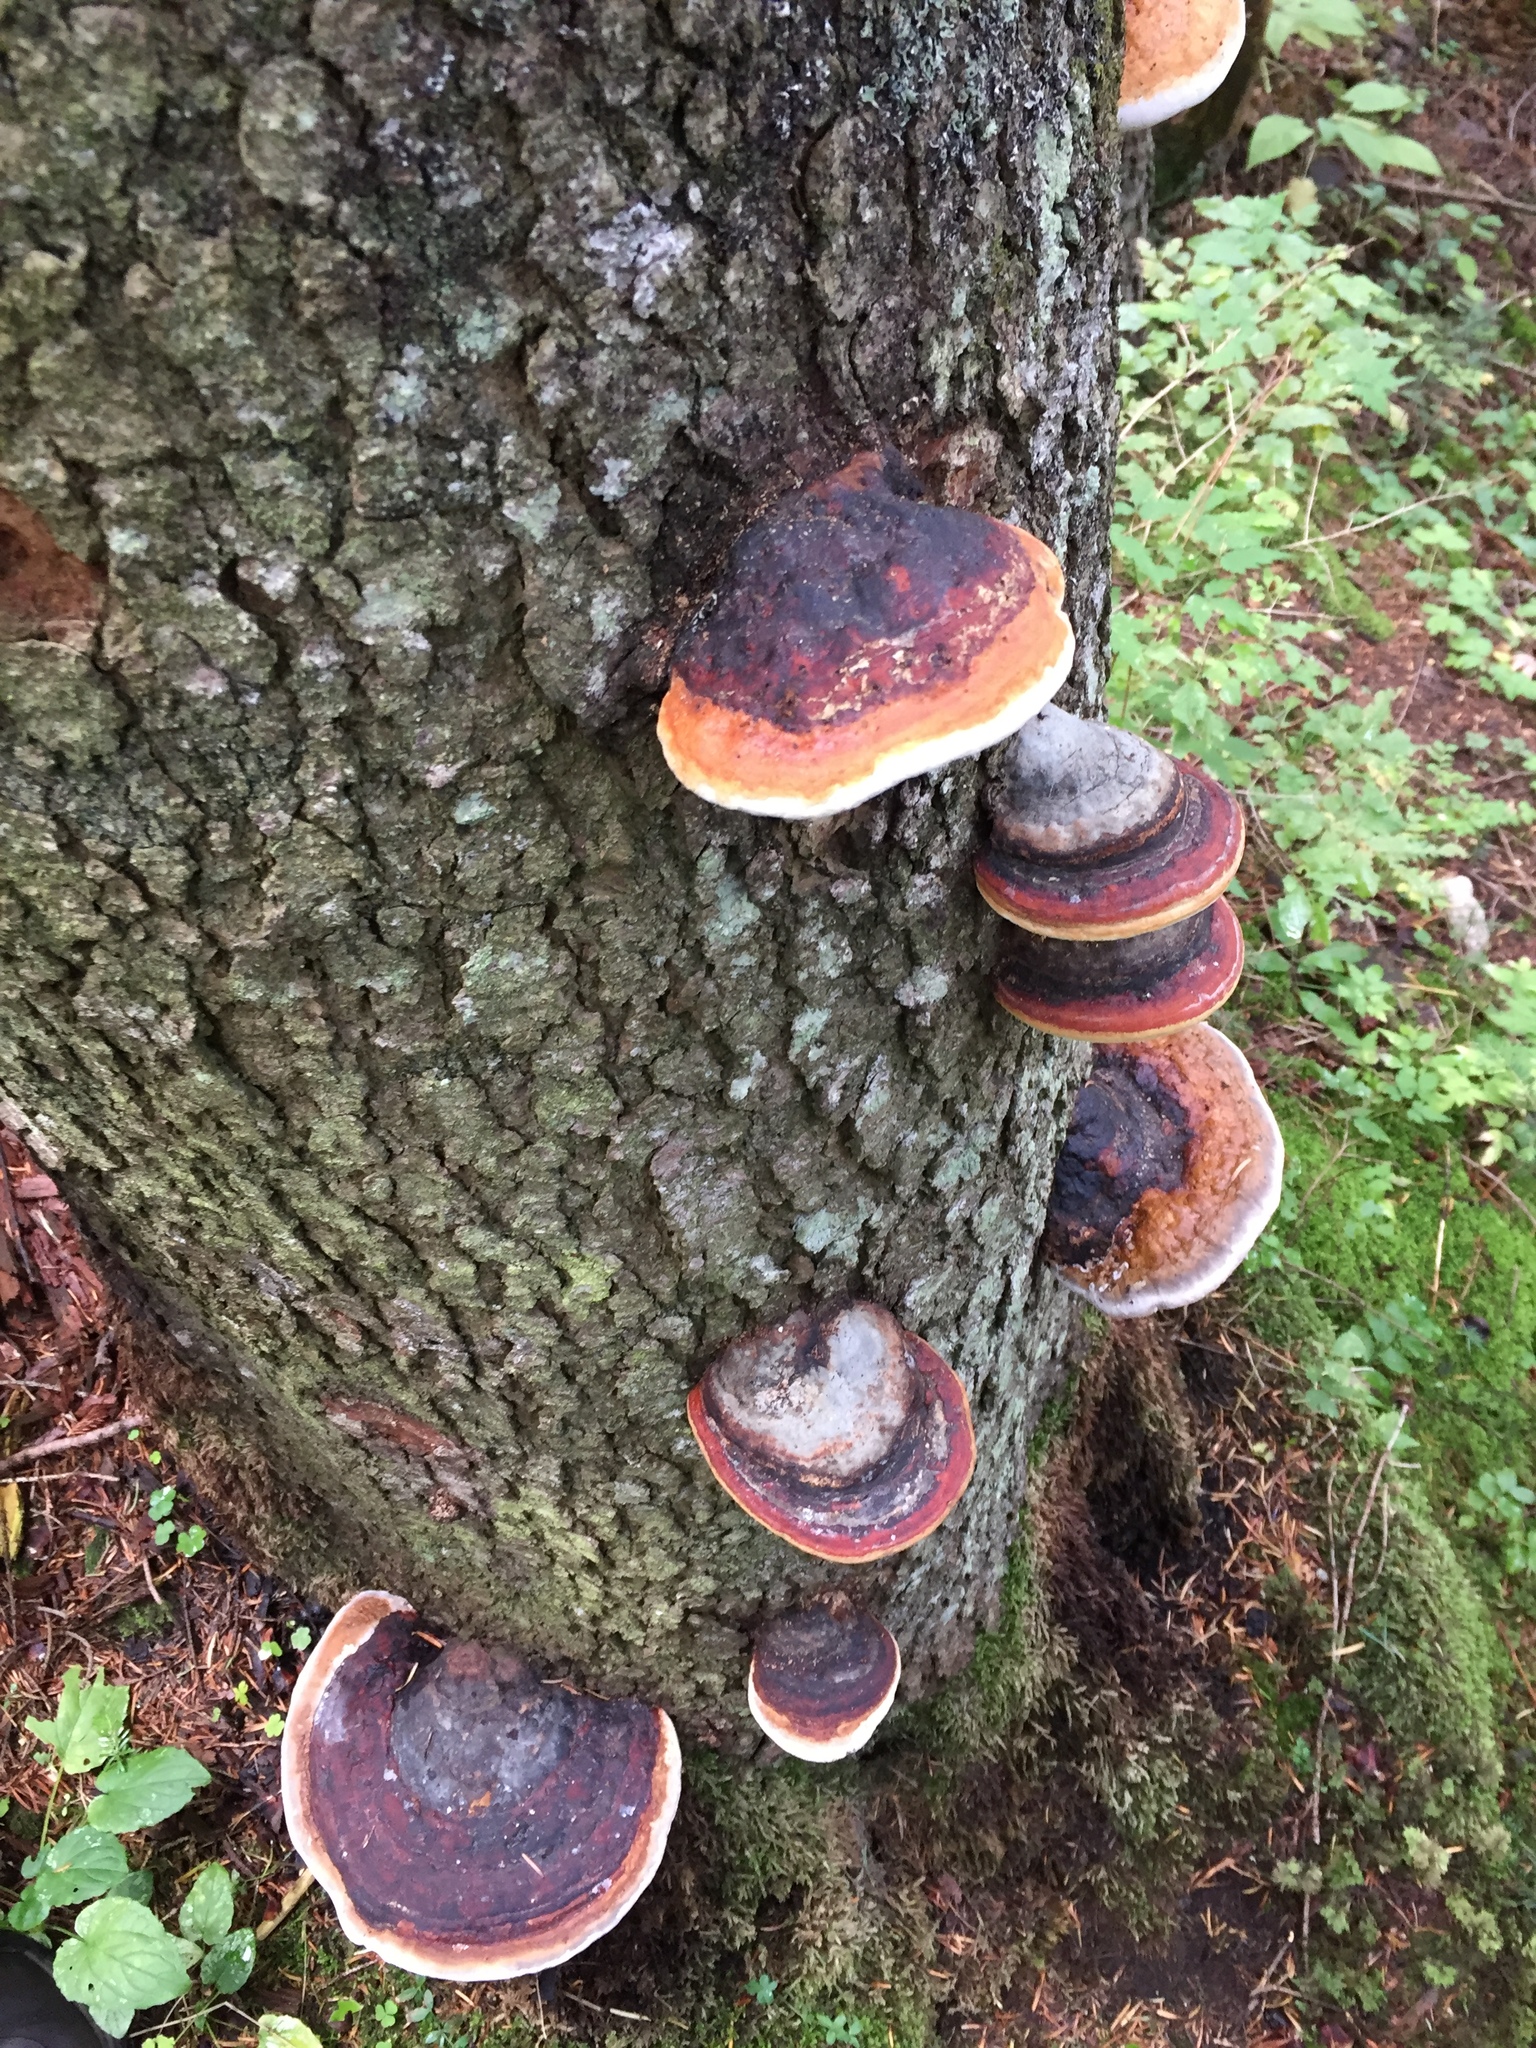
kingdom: Fungi
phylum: Basidiomycota
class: Agaricomycetes
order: Polyporales
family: Fomitopsidaceae
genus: Fomitopsis
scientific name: Fomitopsis pinicola
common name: Red-belted bracket
